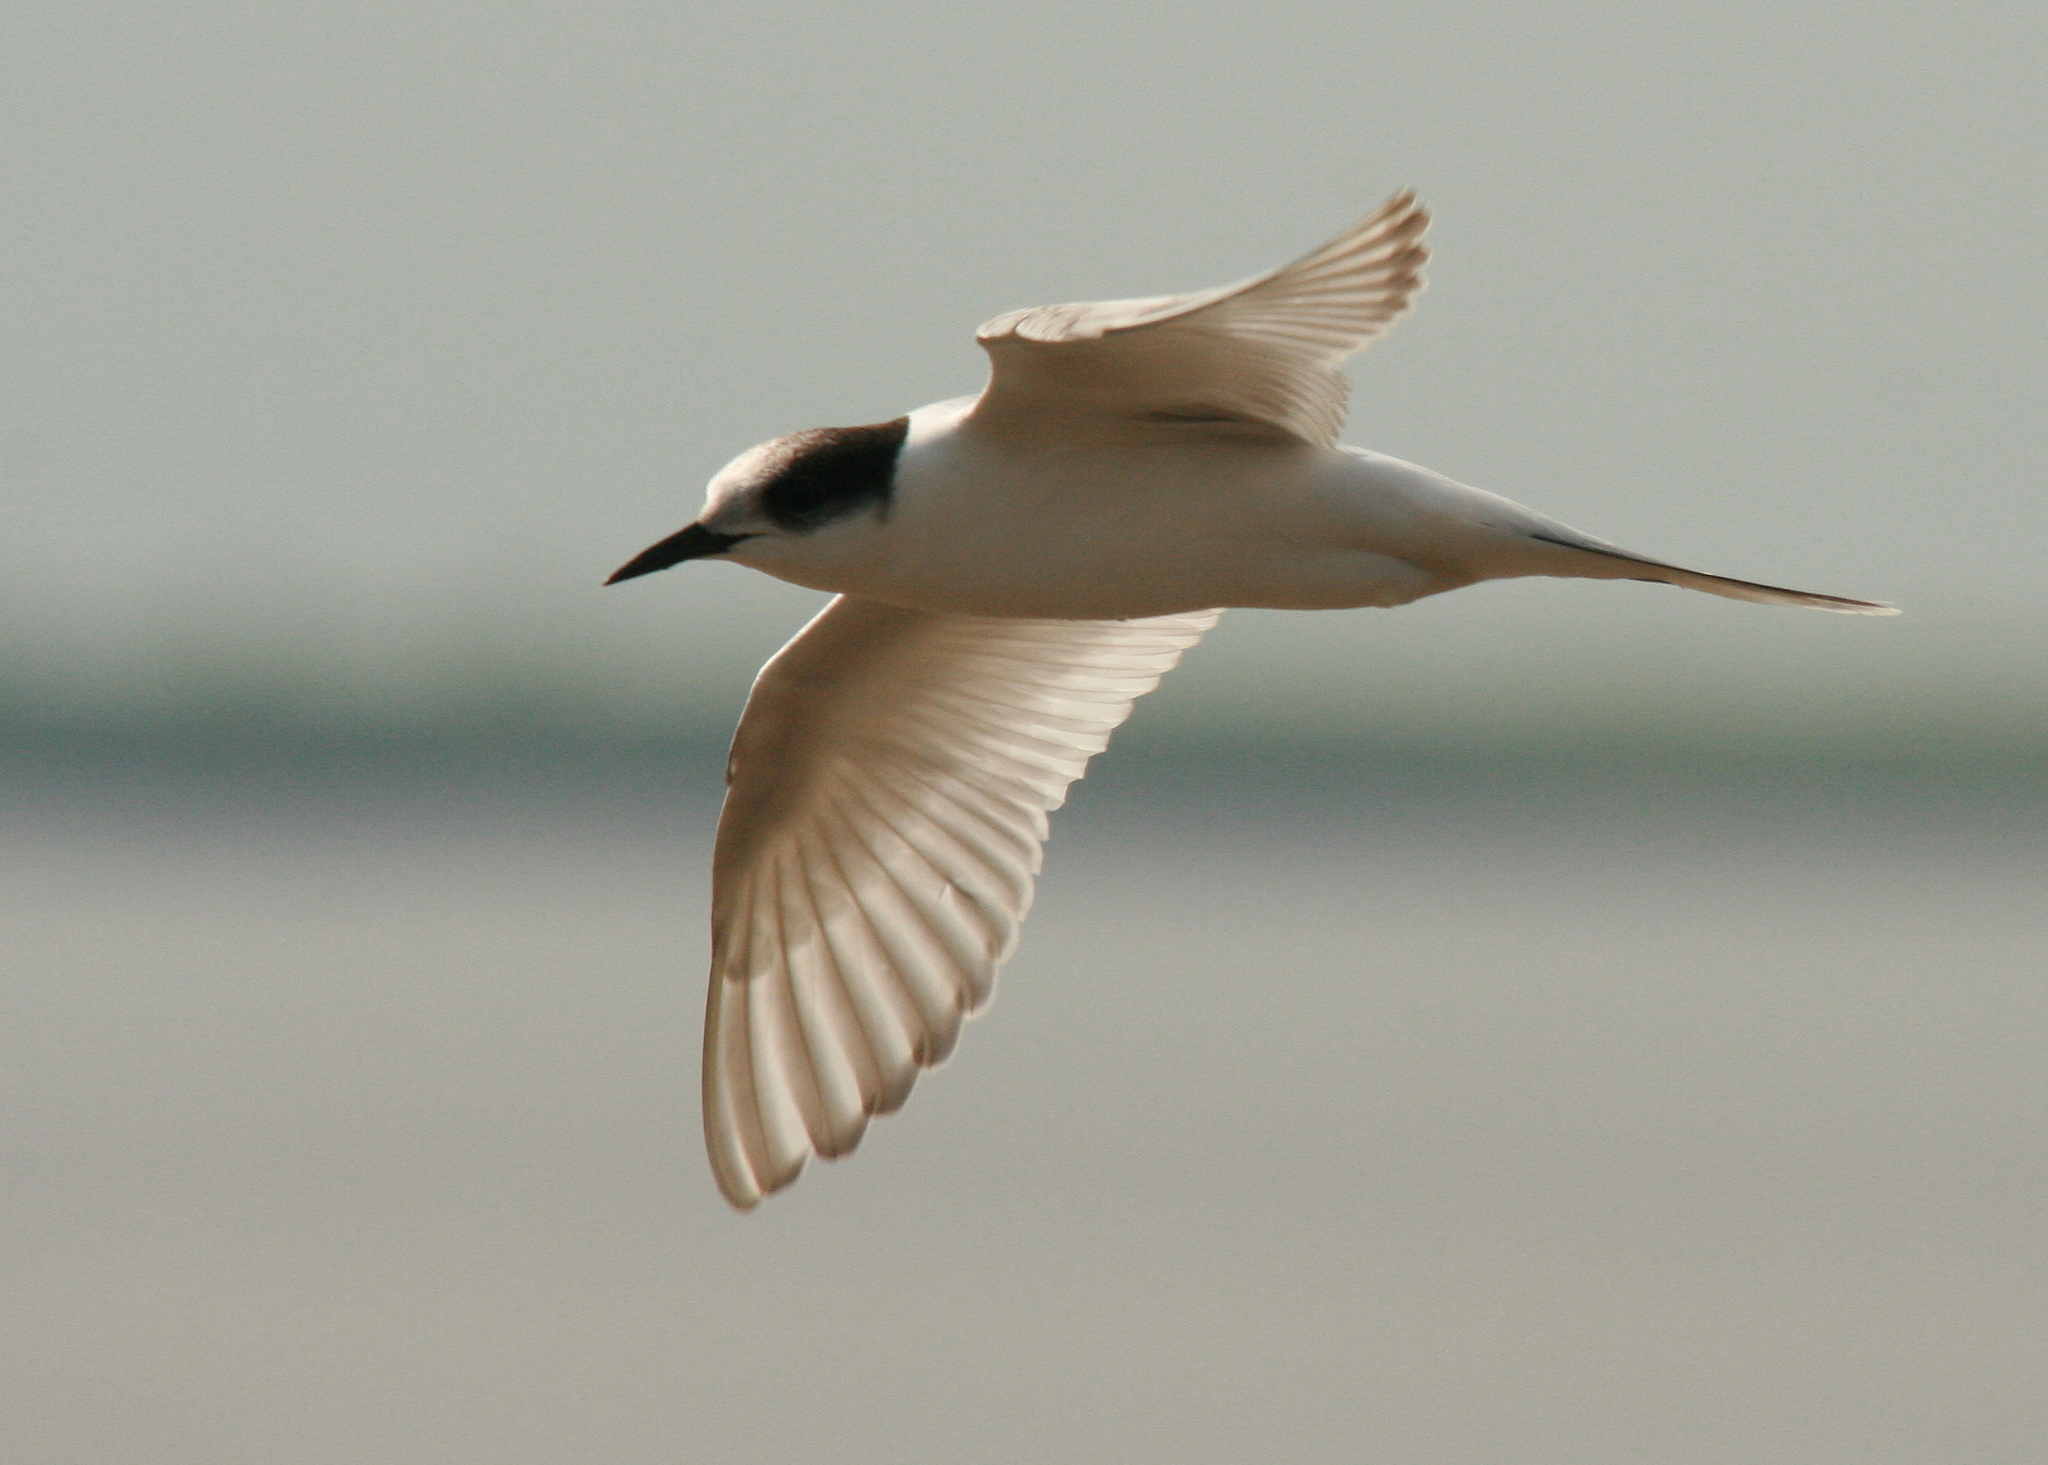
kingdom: Animalia
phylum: Chordata
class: Aves
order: Charadriiformes
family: Laridae
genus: Sterna
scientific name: Sterna paradisaea
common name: Arctic tern
